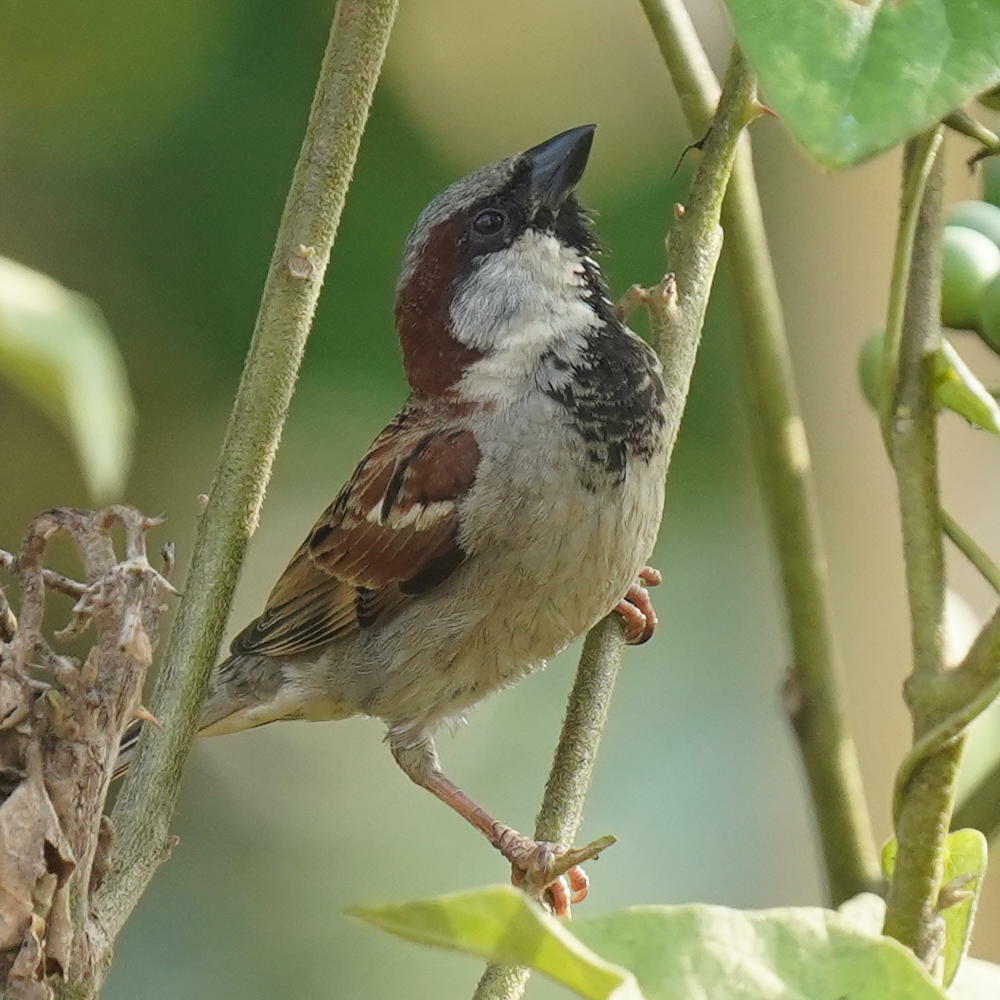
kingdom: Animalia
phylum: Chordata
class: Aves
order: Passeriformes
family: Passeridae
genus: Passer
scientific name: Passer domesticus
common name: House sparrow
